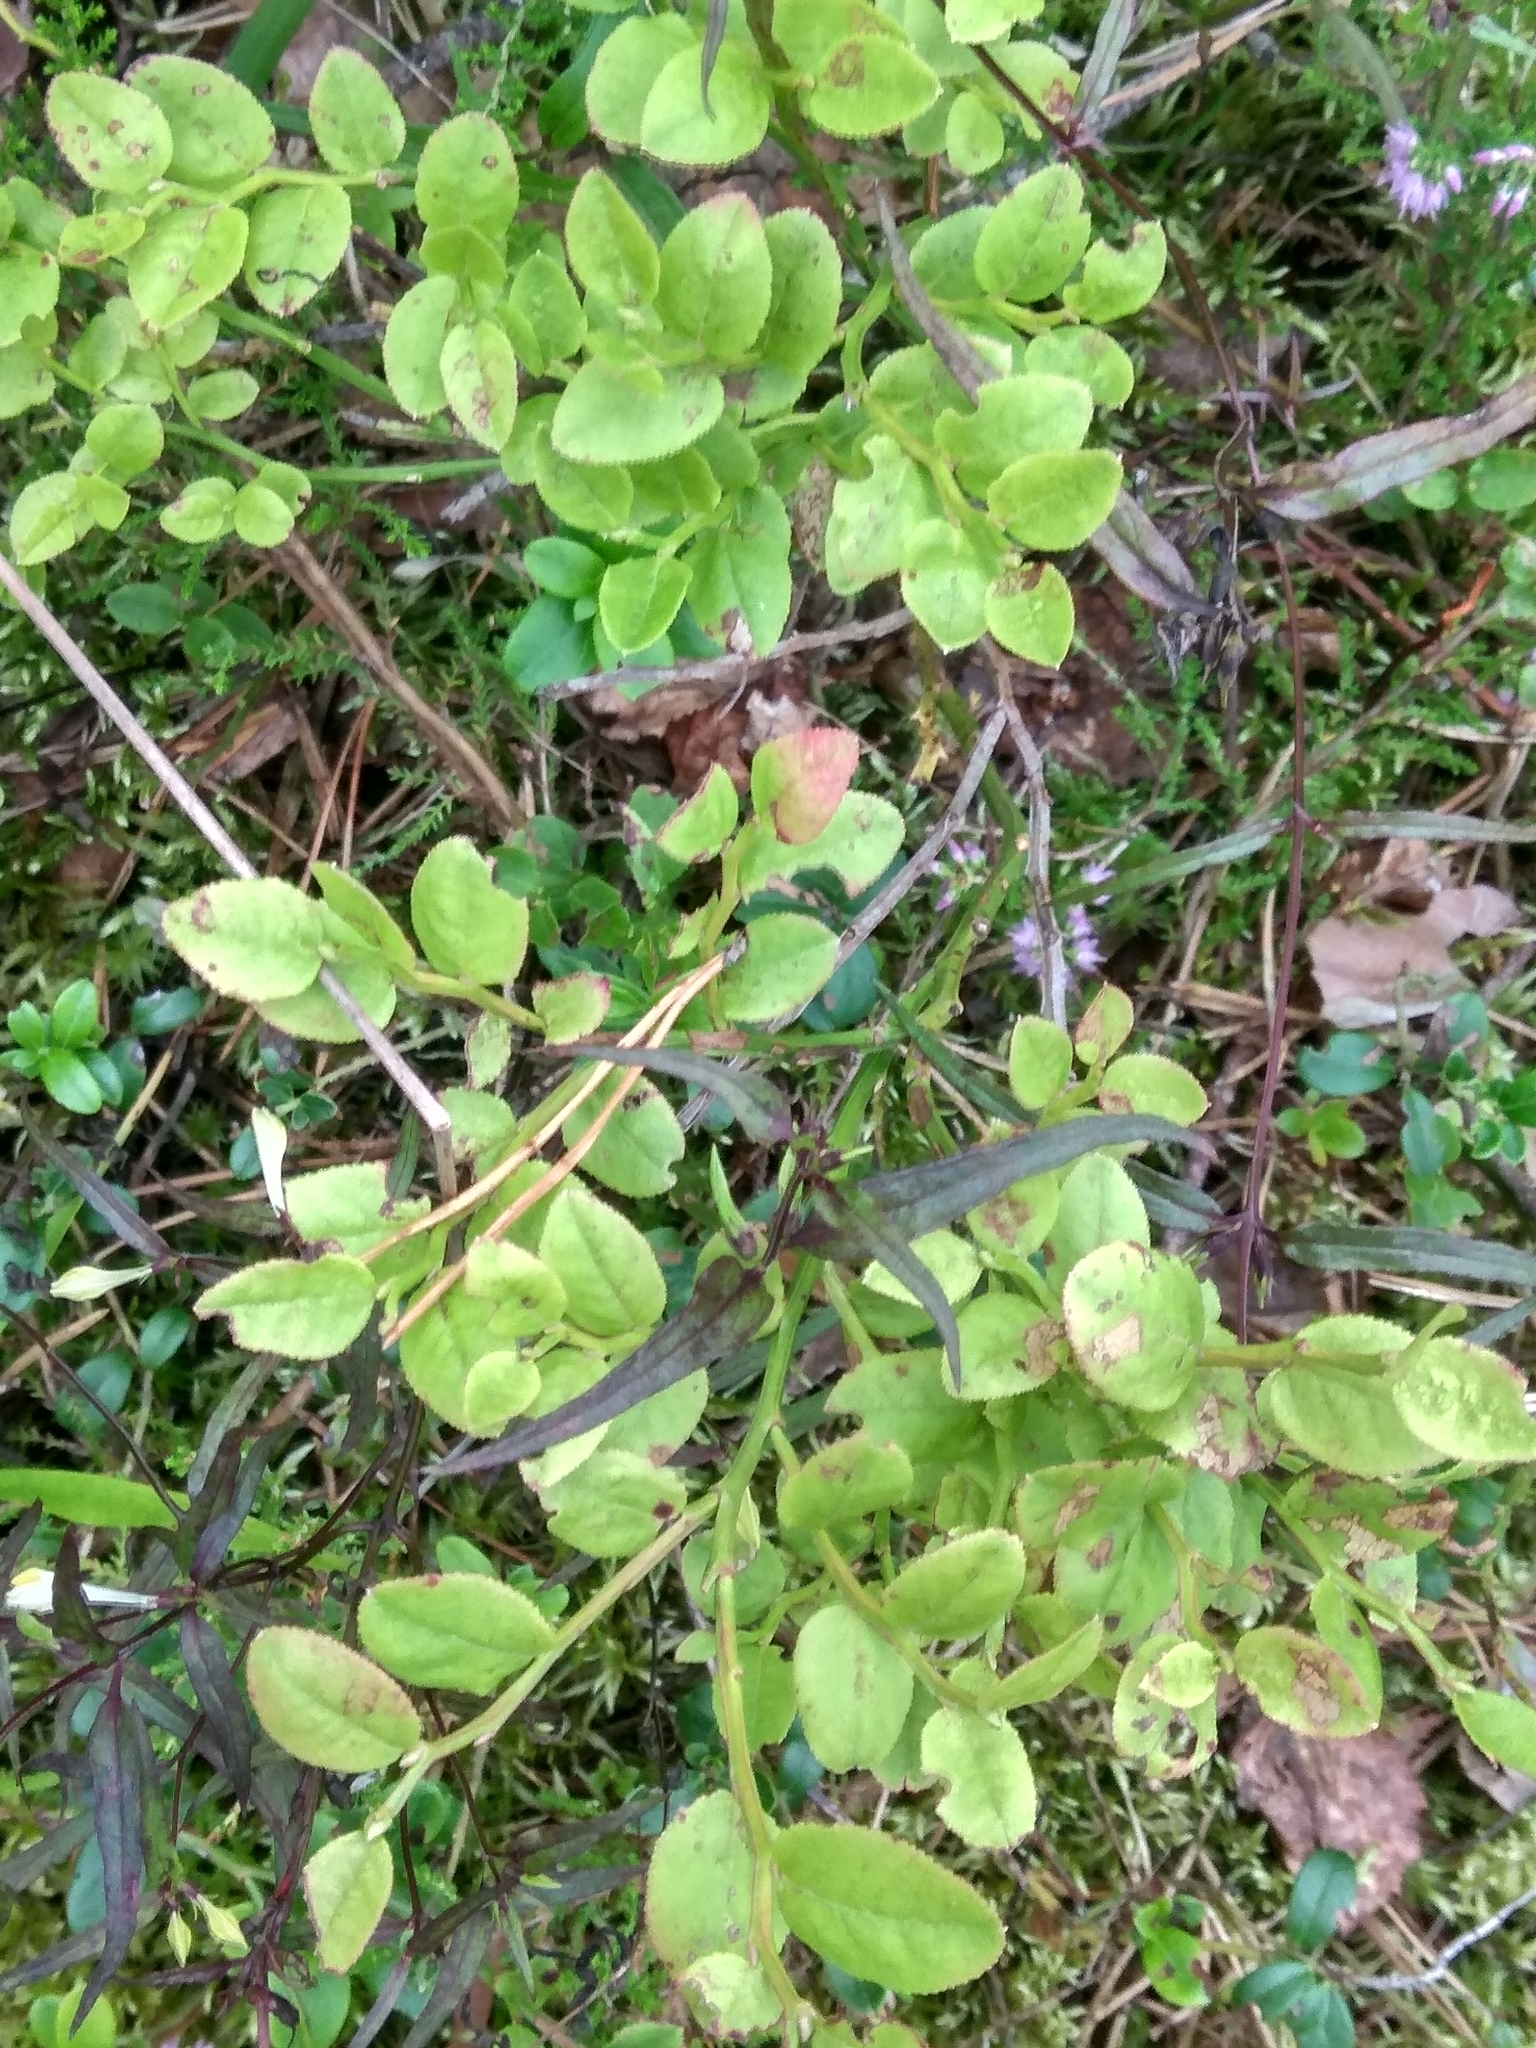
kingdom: Plantae
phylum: Tracheophyta
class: Magnoliopsida
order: Ericales
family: Ericaceae
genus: Vaccinium
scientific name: Vaccinium myrtillus
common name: Bilberry
